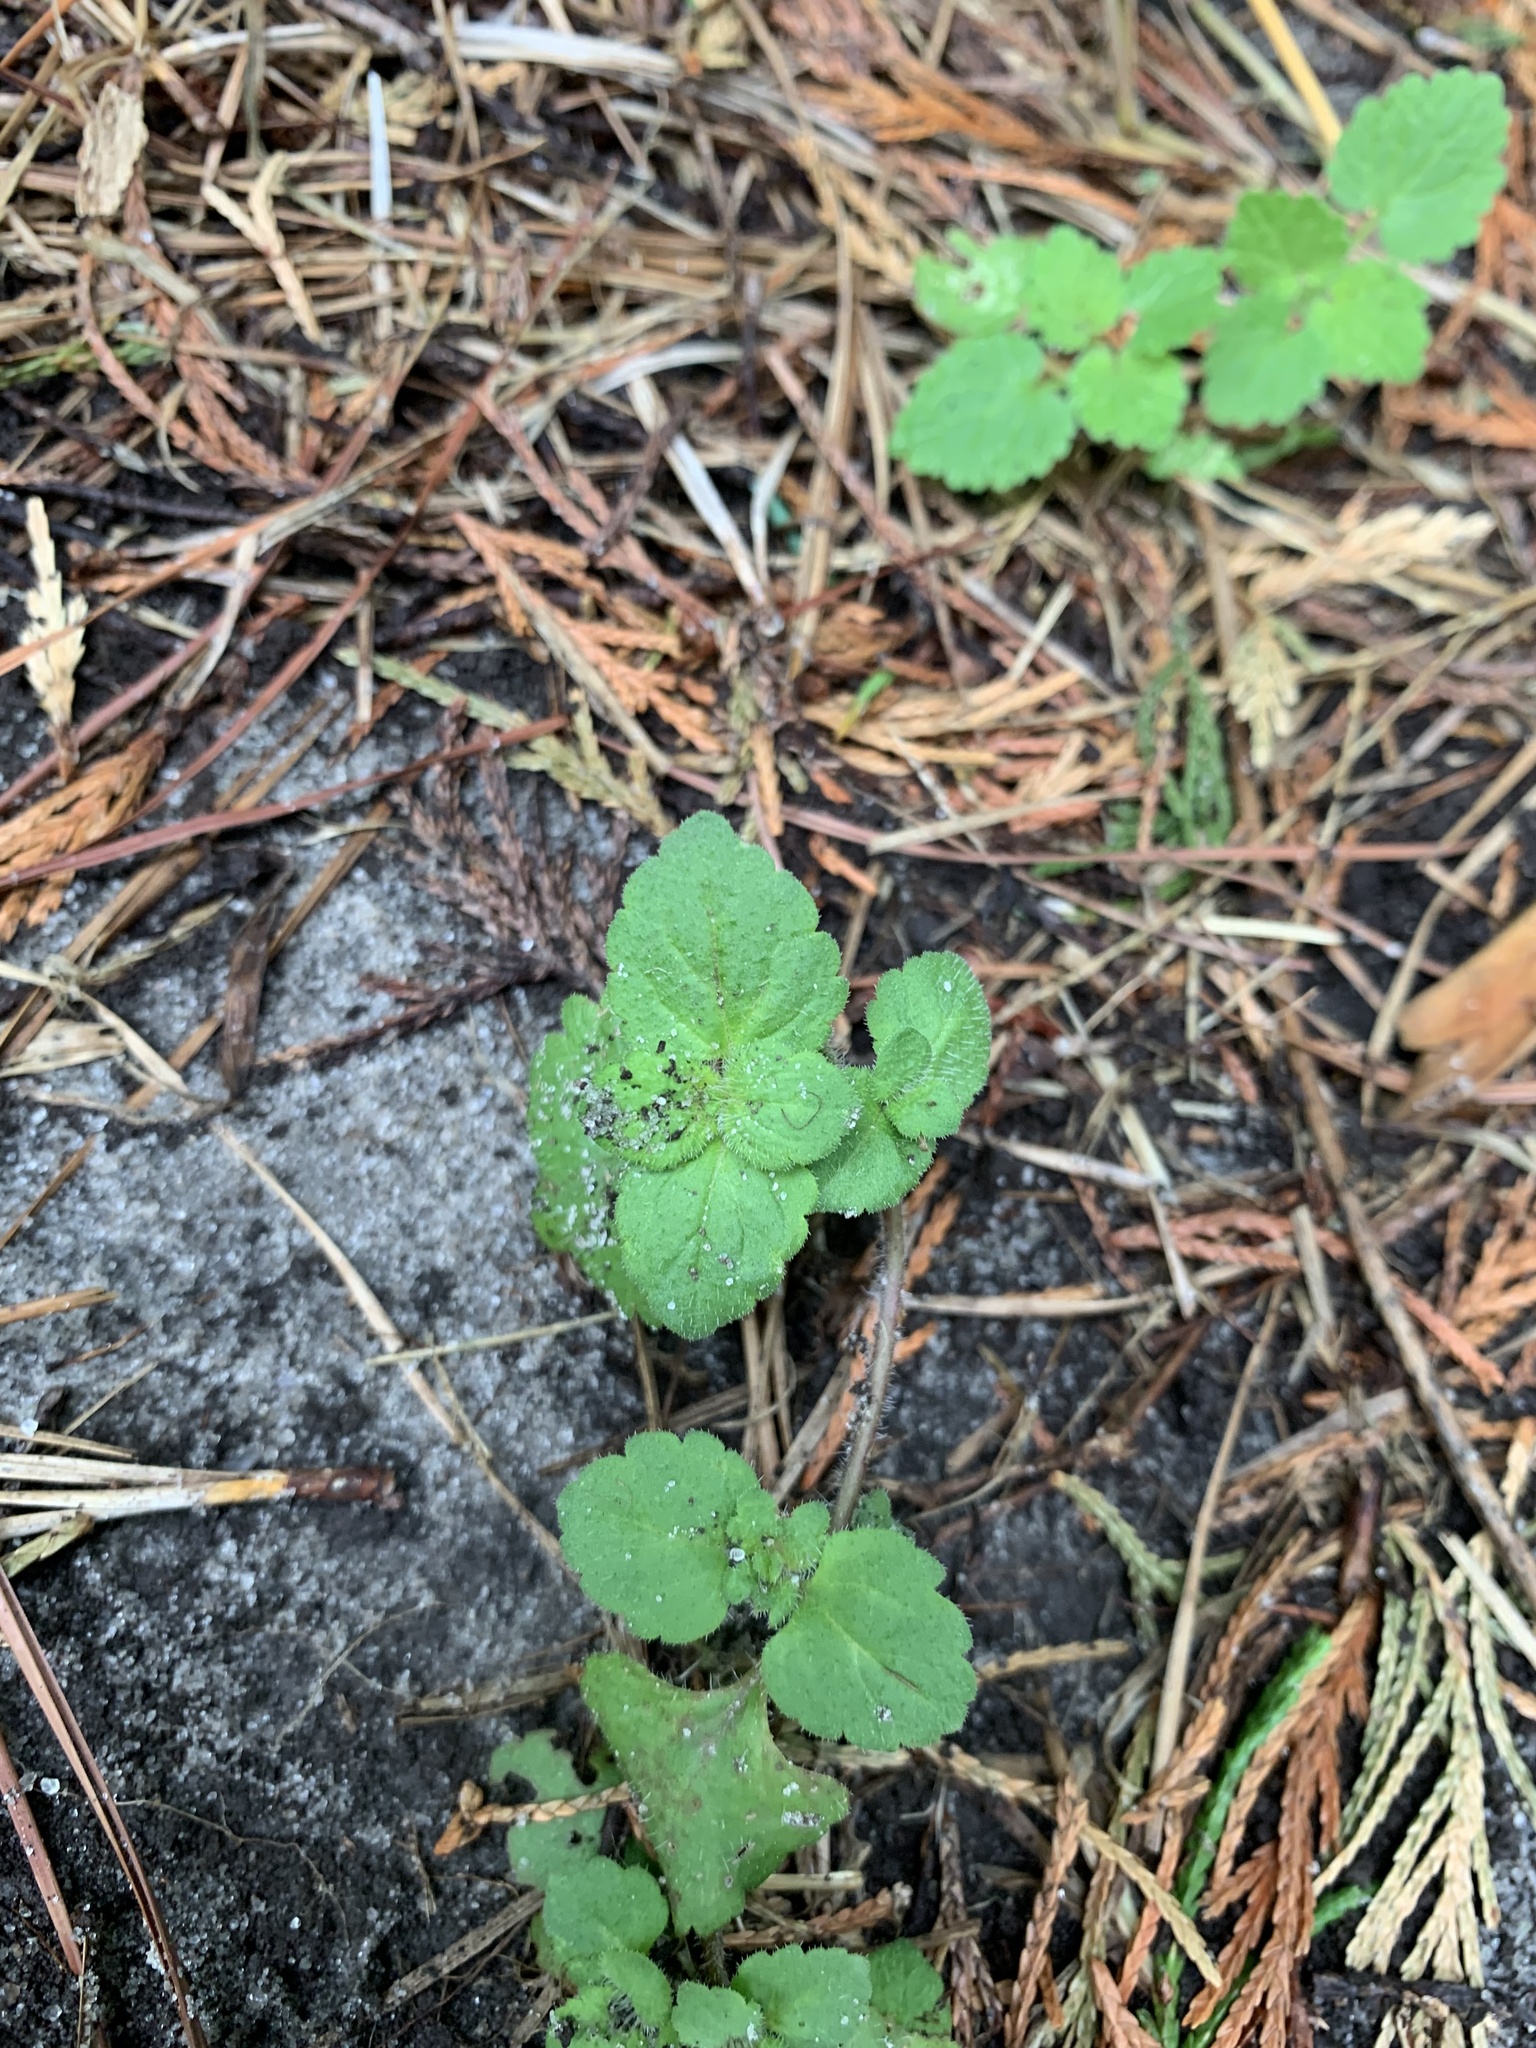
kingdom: Plantae
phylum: Tracheophyta
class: Magnoliopsida
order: Lamiales
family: Lamiaceae
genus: Lamium
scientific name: Lamium purpureum
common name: Red dead-nettle
